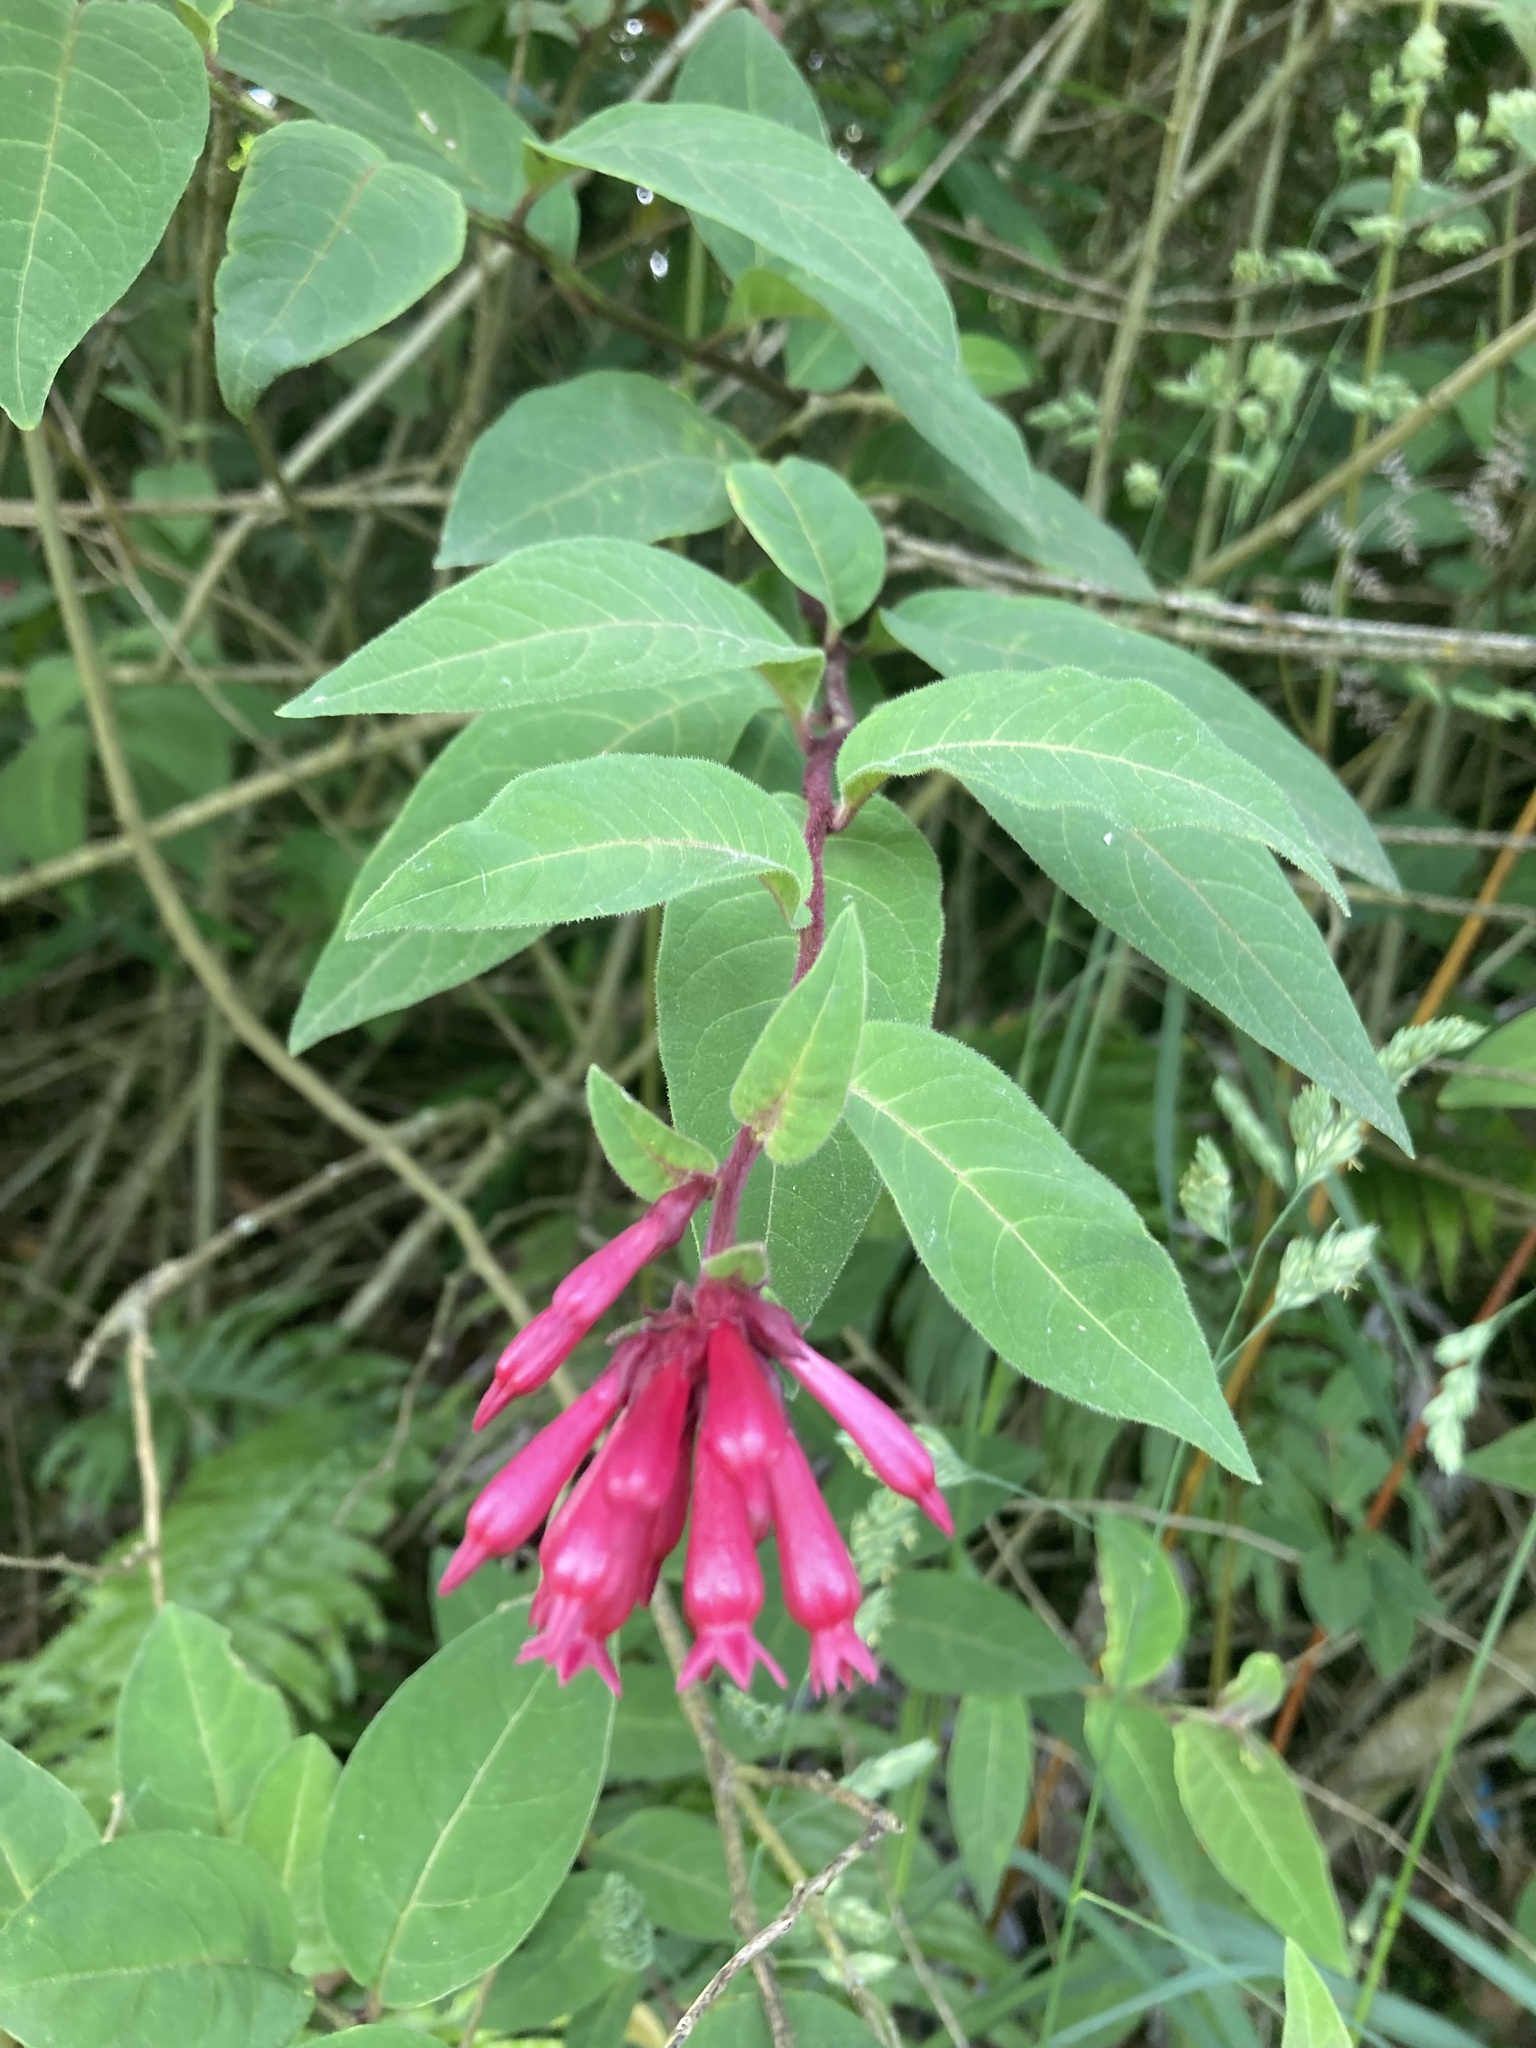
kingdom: Plantae
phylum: Tracheophyta
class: Magnoliopsida
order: Solanales
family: Solanaceae
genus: Cestrum
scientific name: Cestrum elegans
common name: Crimson cestrum
